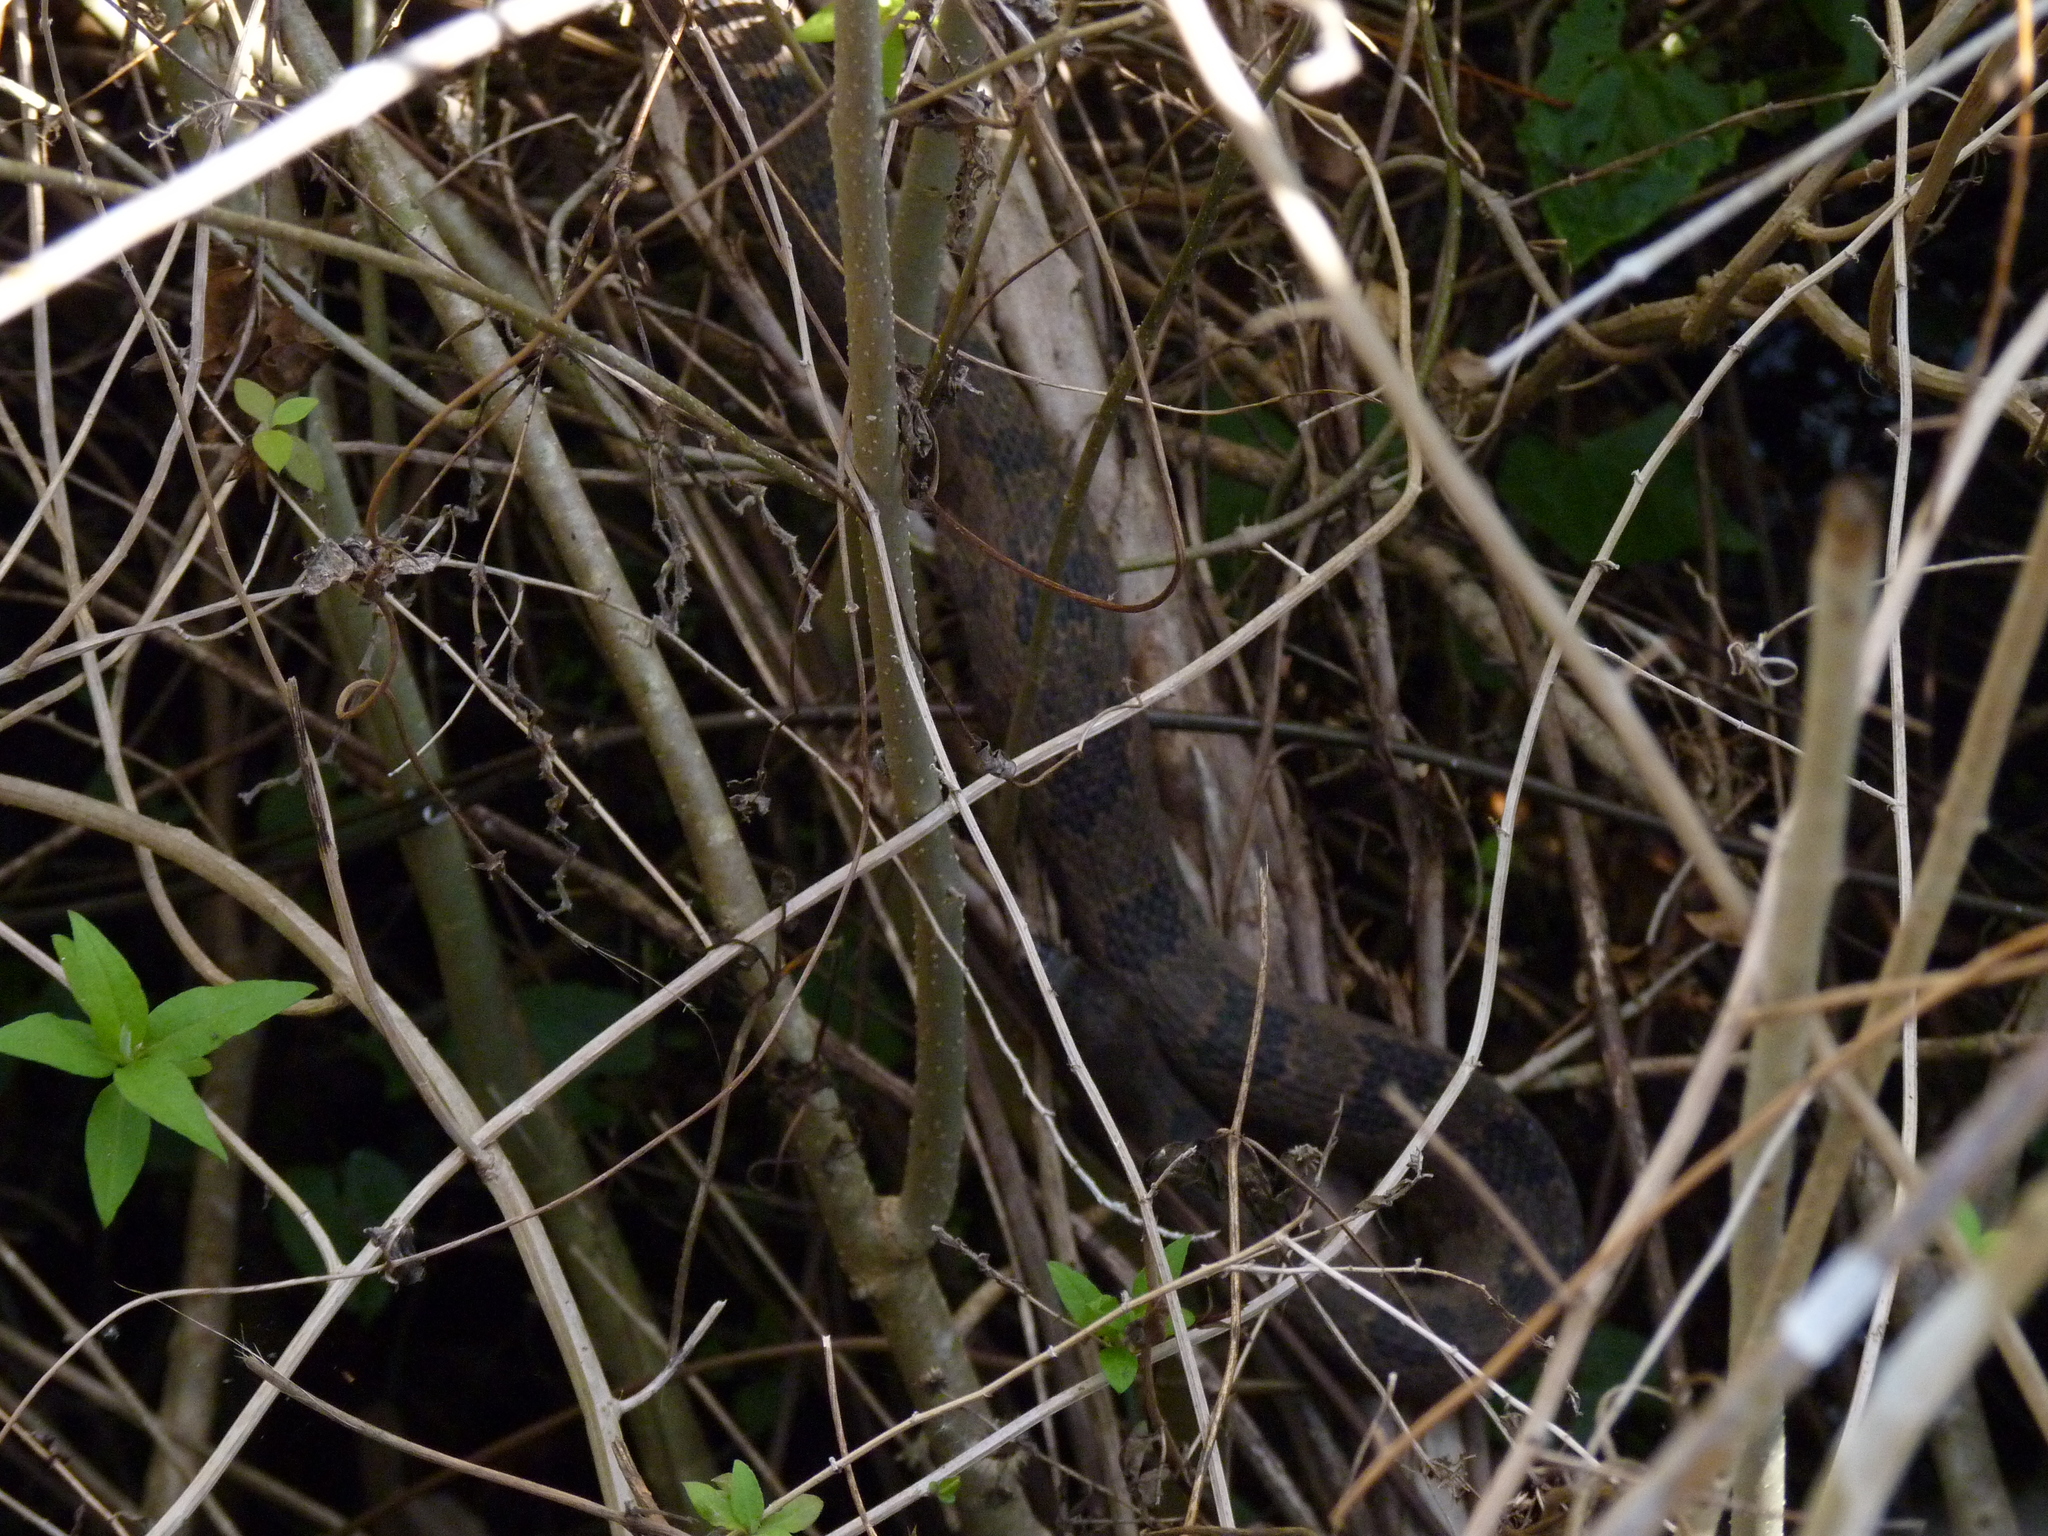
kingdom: Animalia
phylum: Chordata
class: Squamata
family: Colubridae
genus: Nerodia
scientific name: Nerodia taxispilota
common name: Brown water snake
